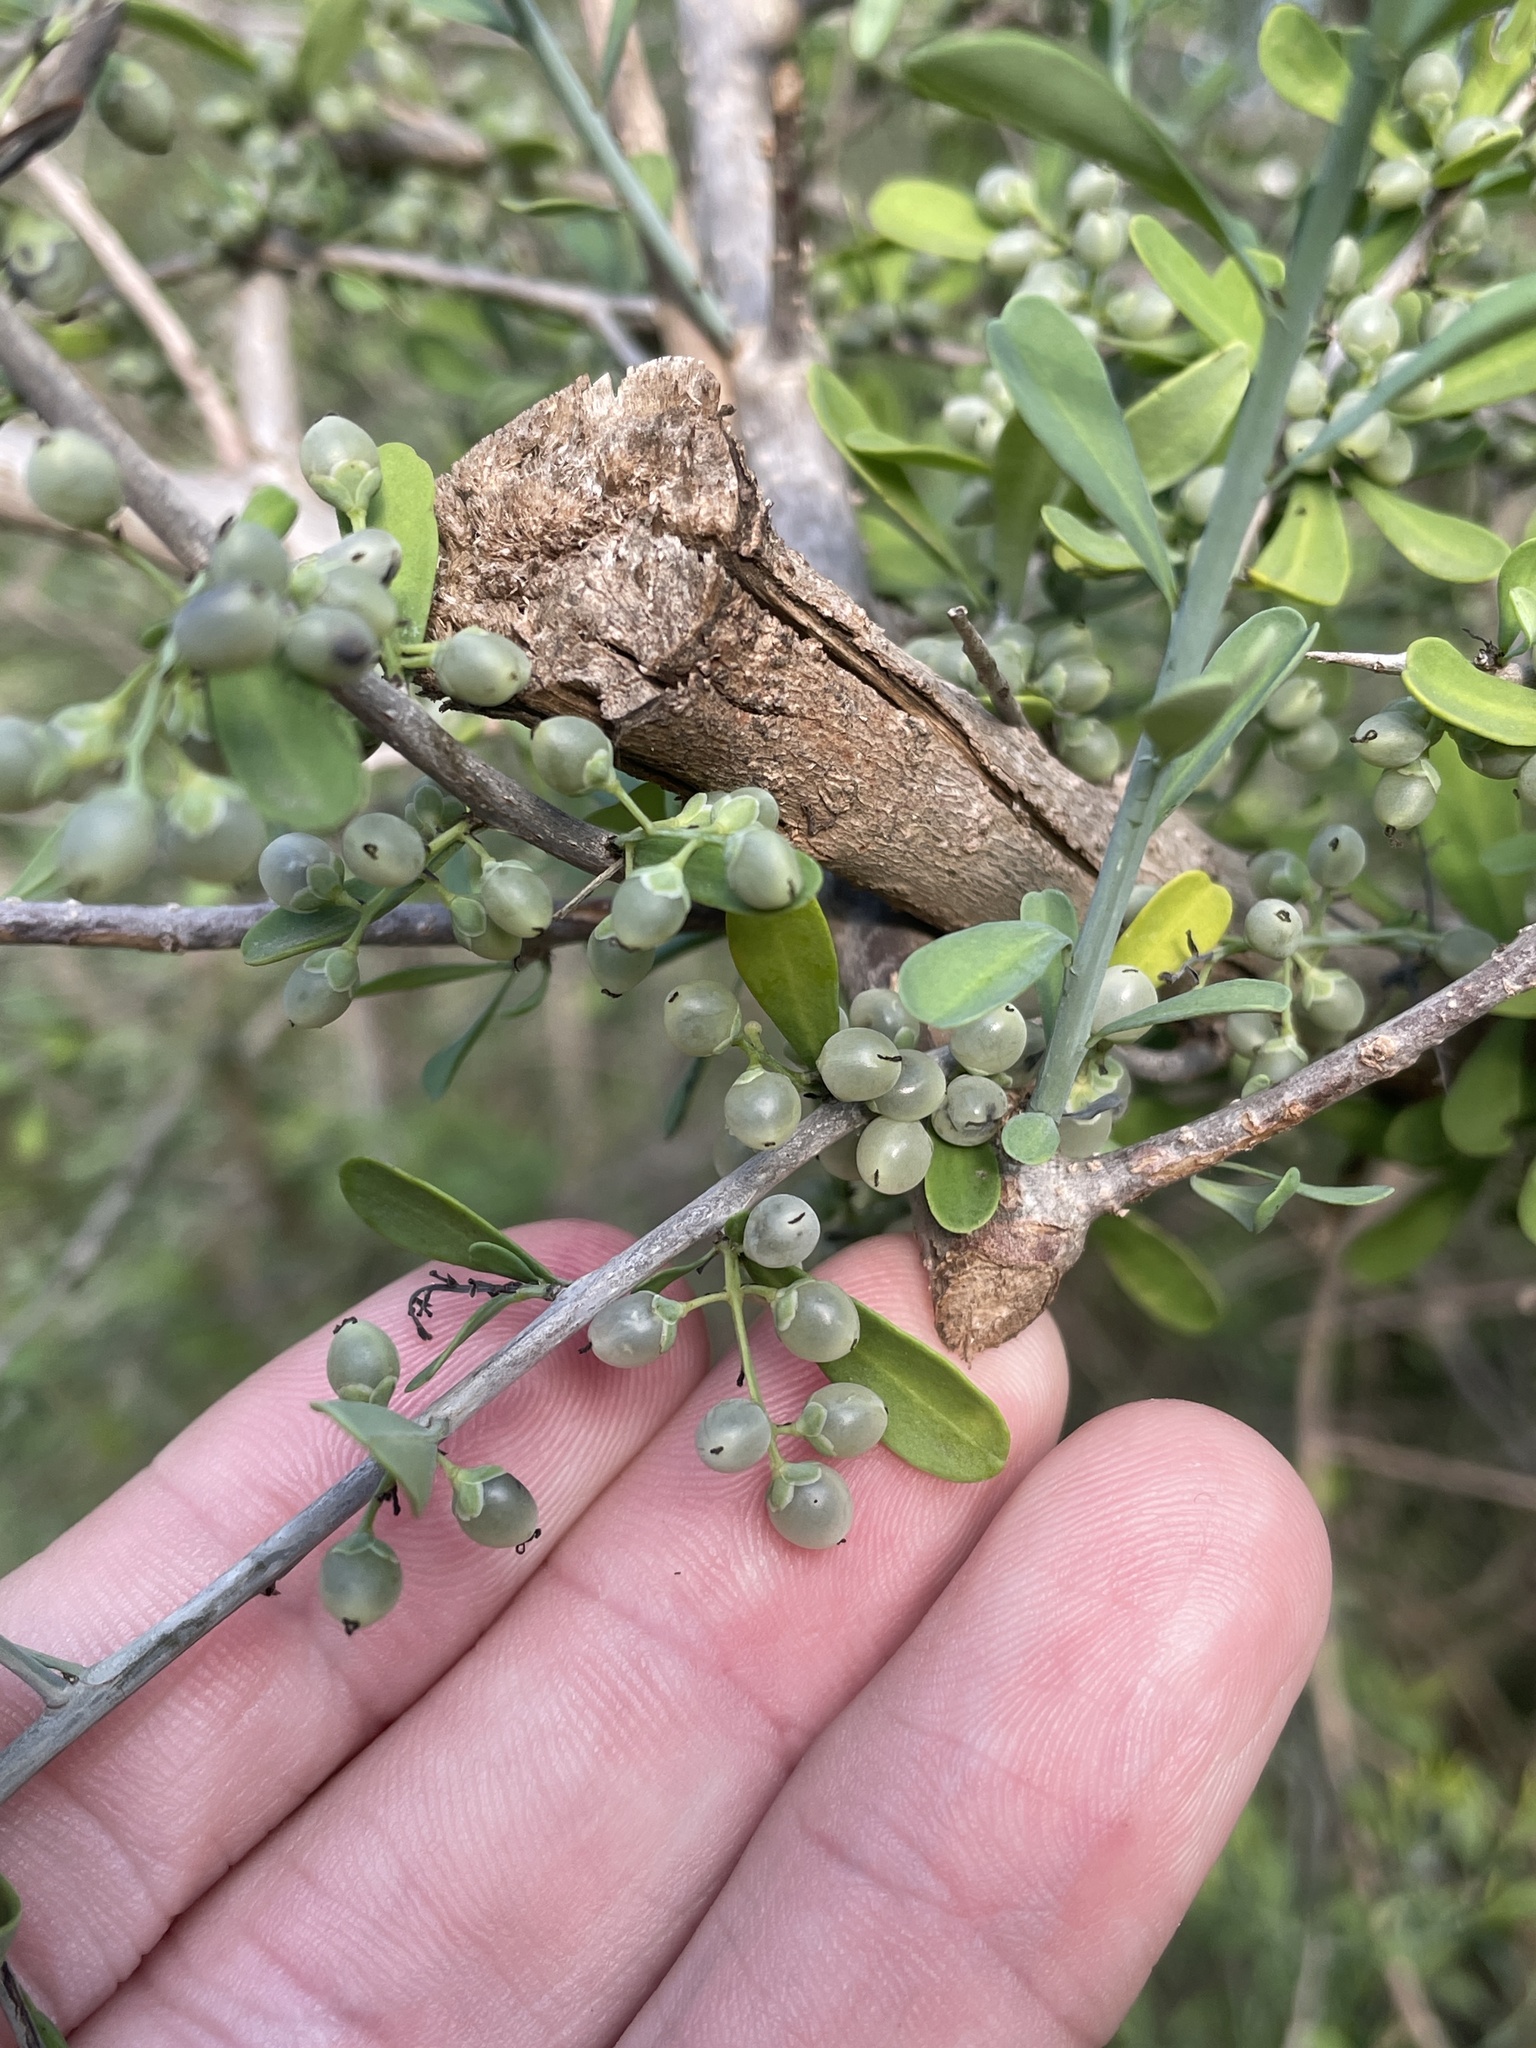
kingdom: Plantae
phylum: Tracheophyta
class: Magnoliopsida
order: Caryophyllales
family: Achatocarpaceae
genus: Phaulothamnus
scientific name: Phaulothamnus spinescens
